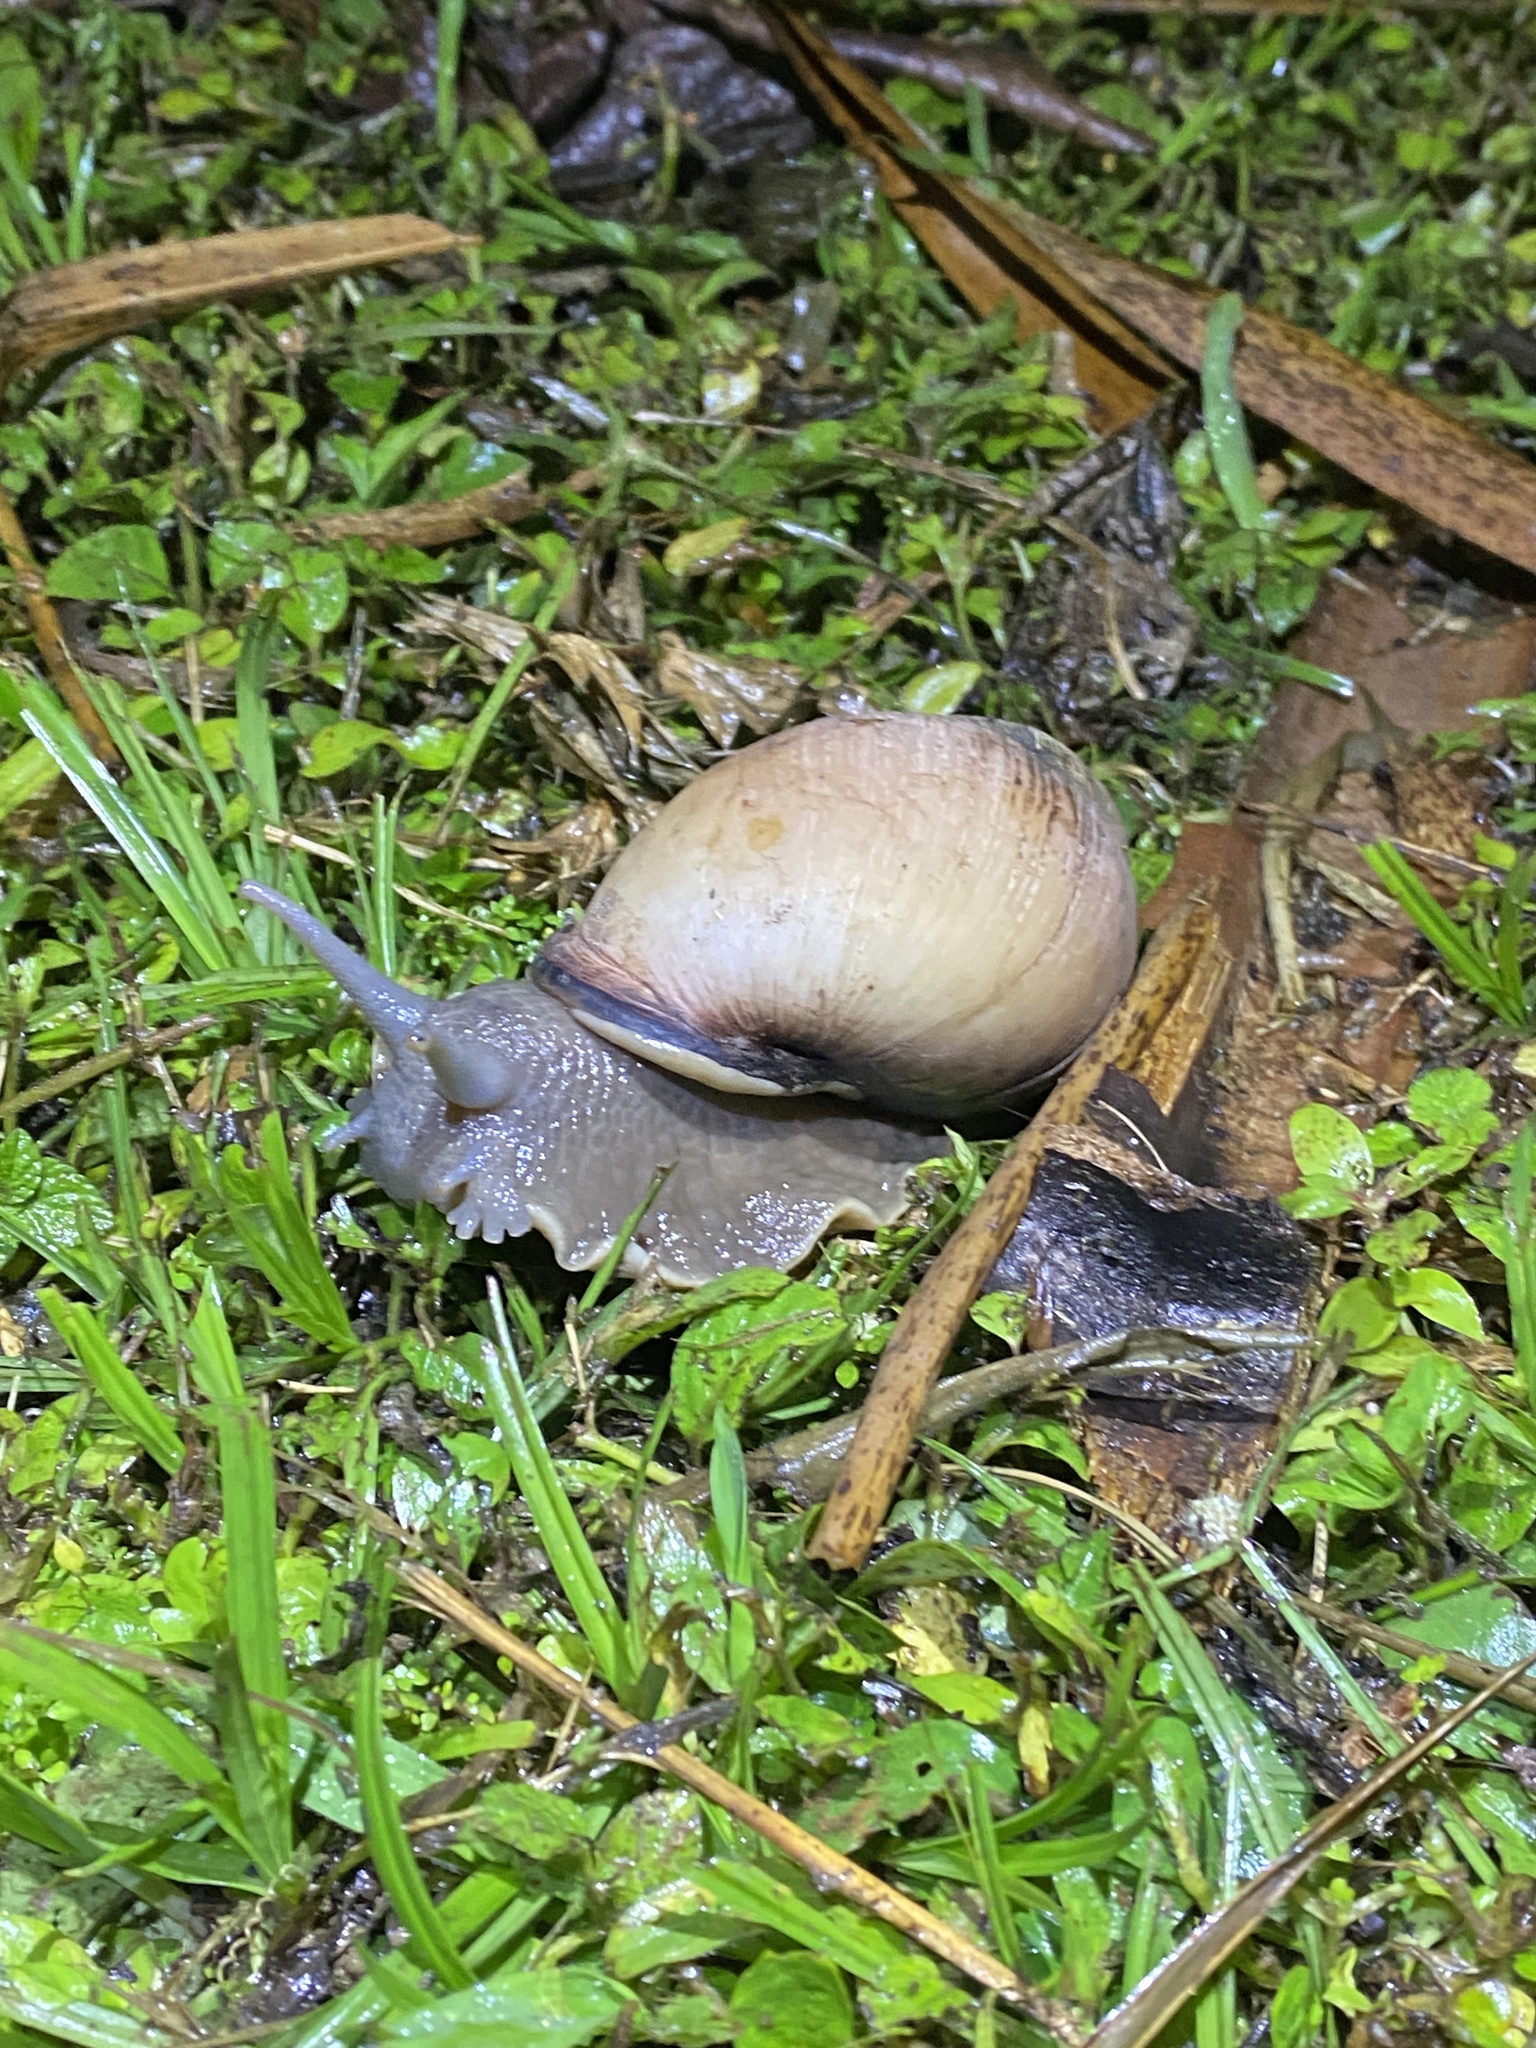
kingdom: Animalia
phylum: Mollusca
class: Gastropoda
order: Stylommatophora
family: Strophocheilidae
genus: Megalobulimus
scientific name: Megalobulimus oblongus
